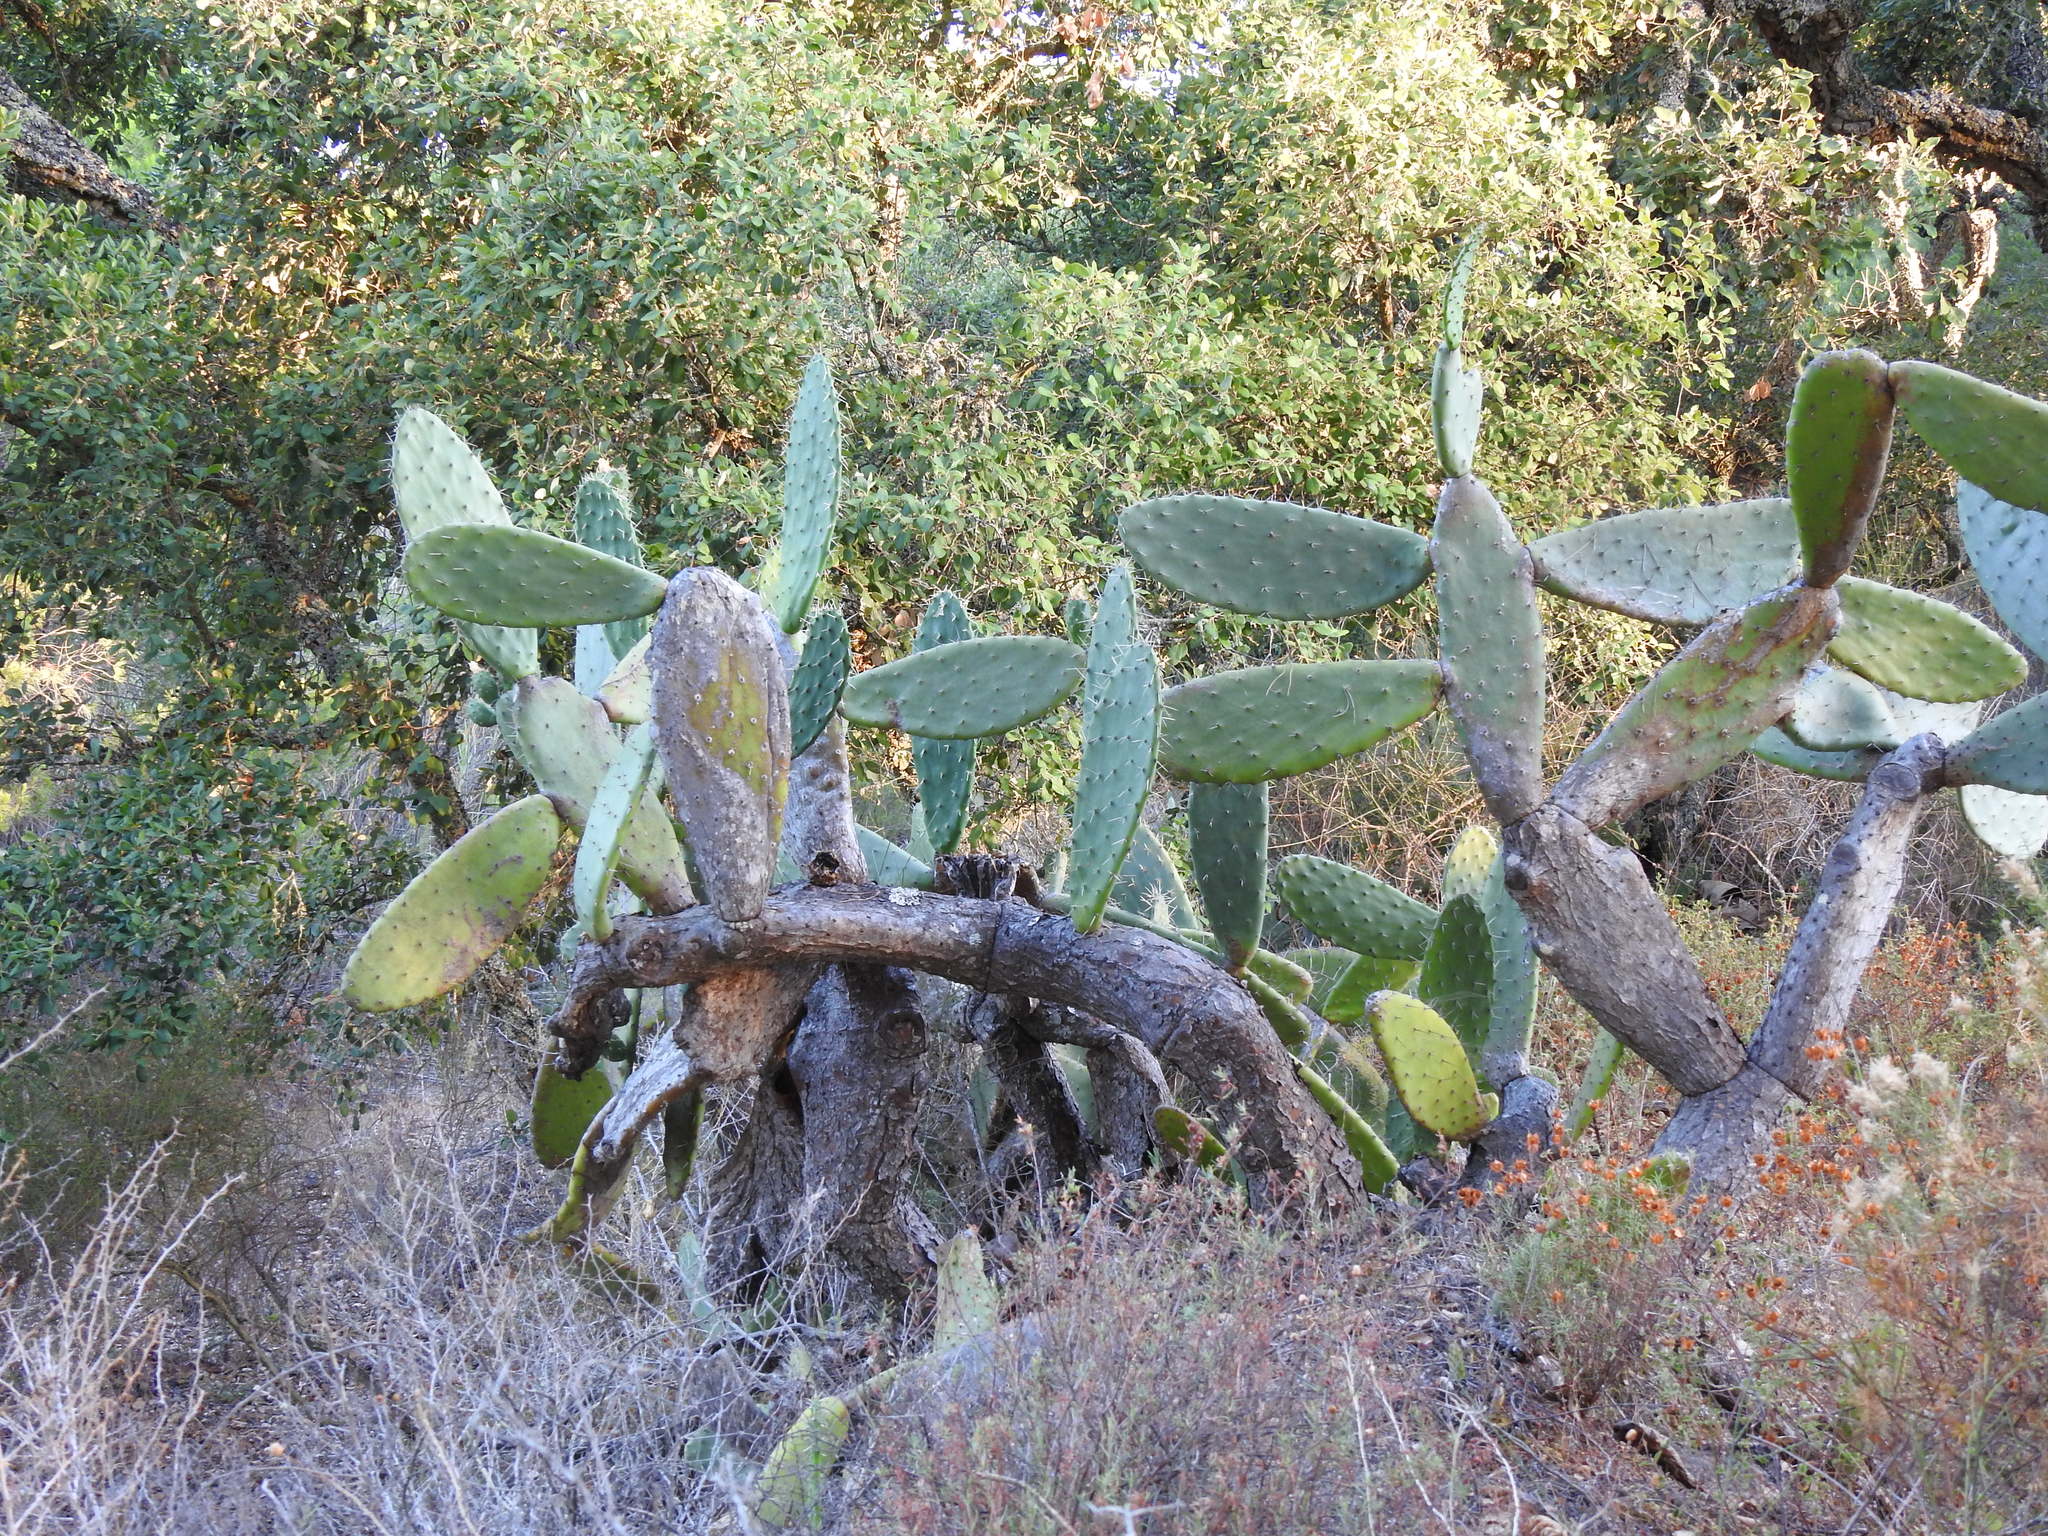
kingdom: Plantae
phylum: Tracheophyta
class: Magnoliopsida
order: Caryophyllales
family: Cactaceae
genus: Opuntia
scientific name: Opuntia ficus-indica
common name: Barbary fig
